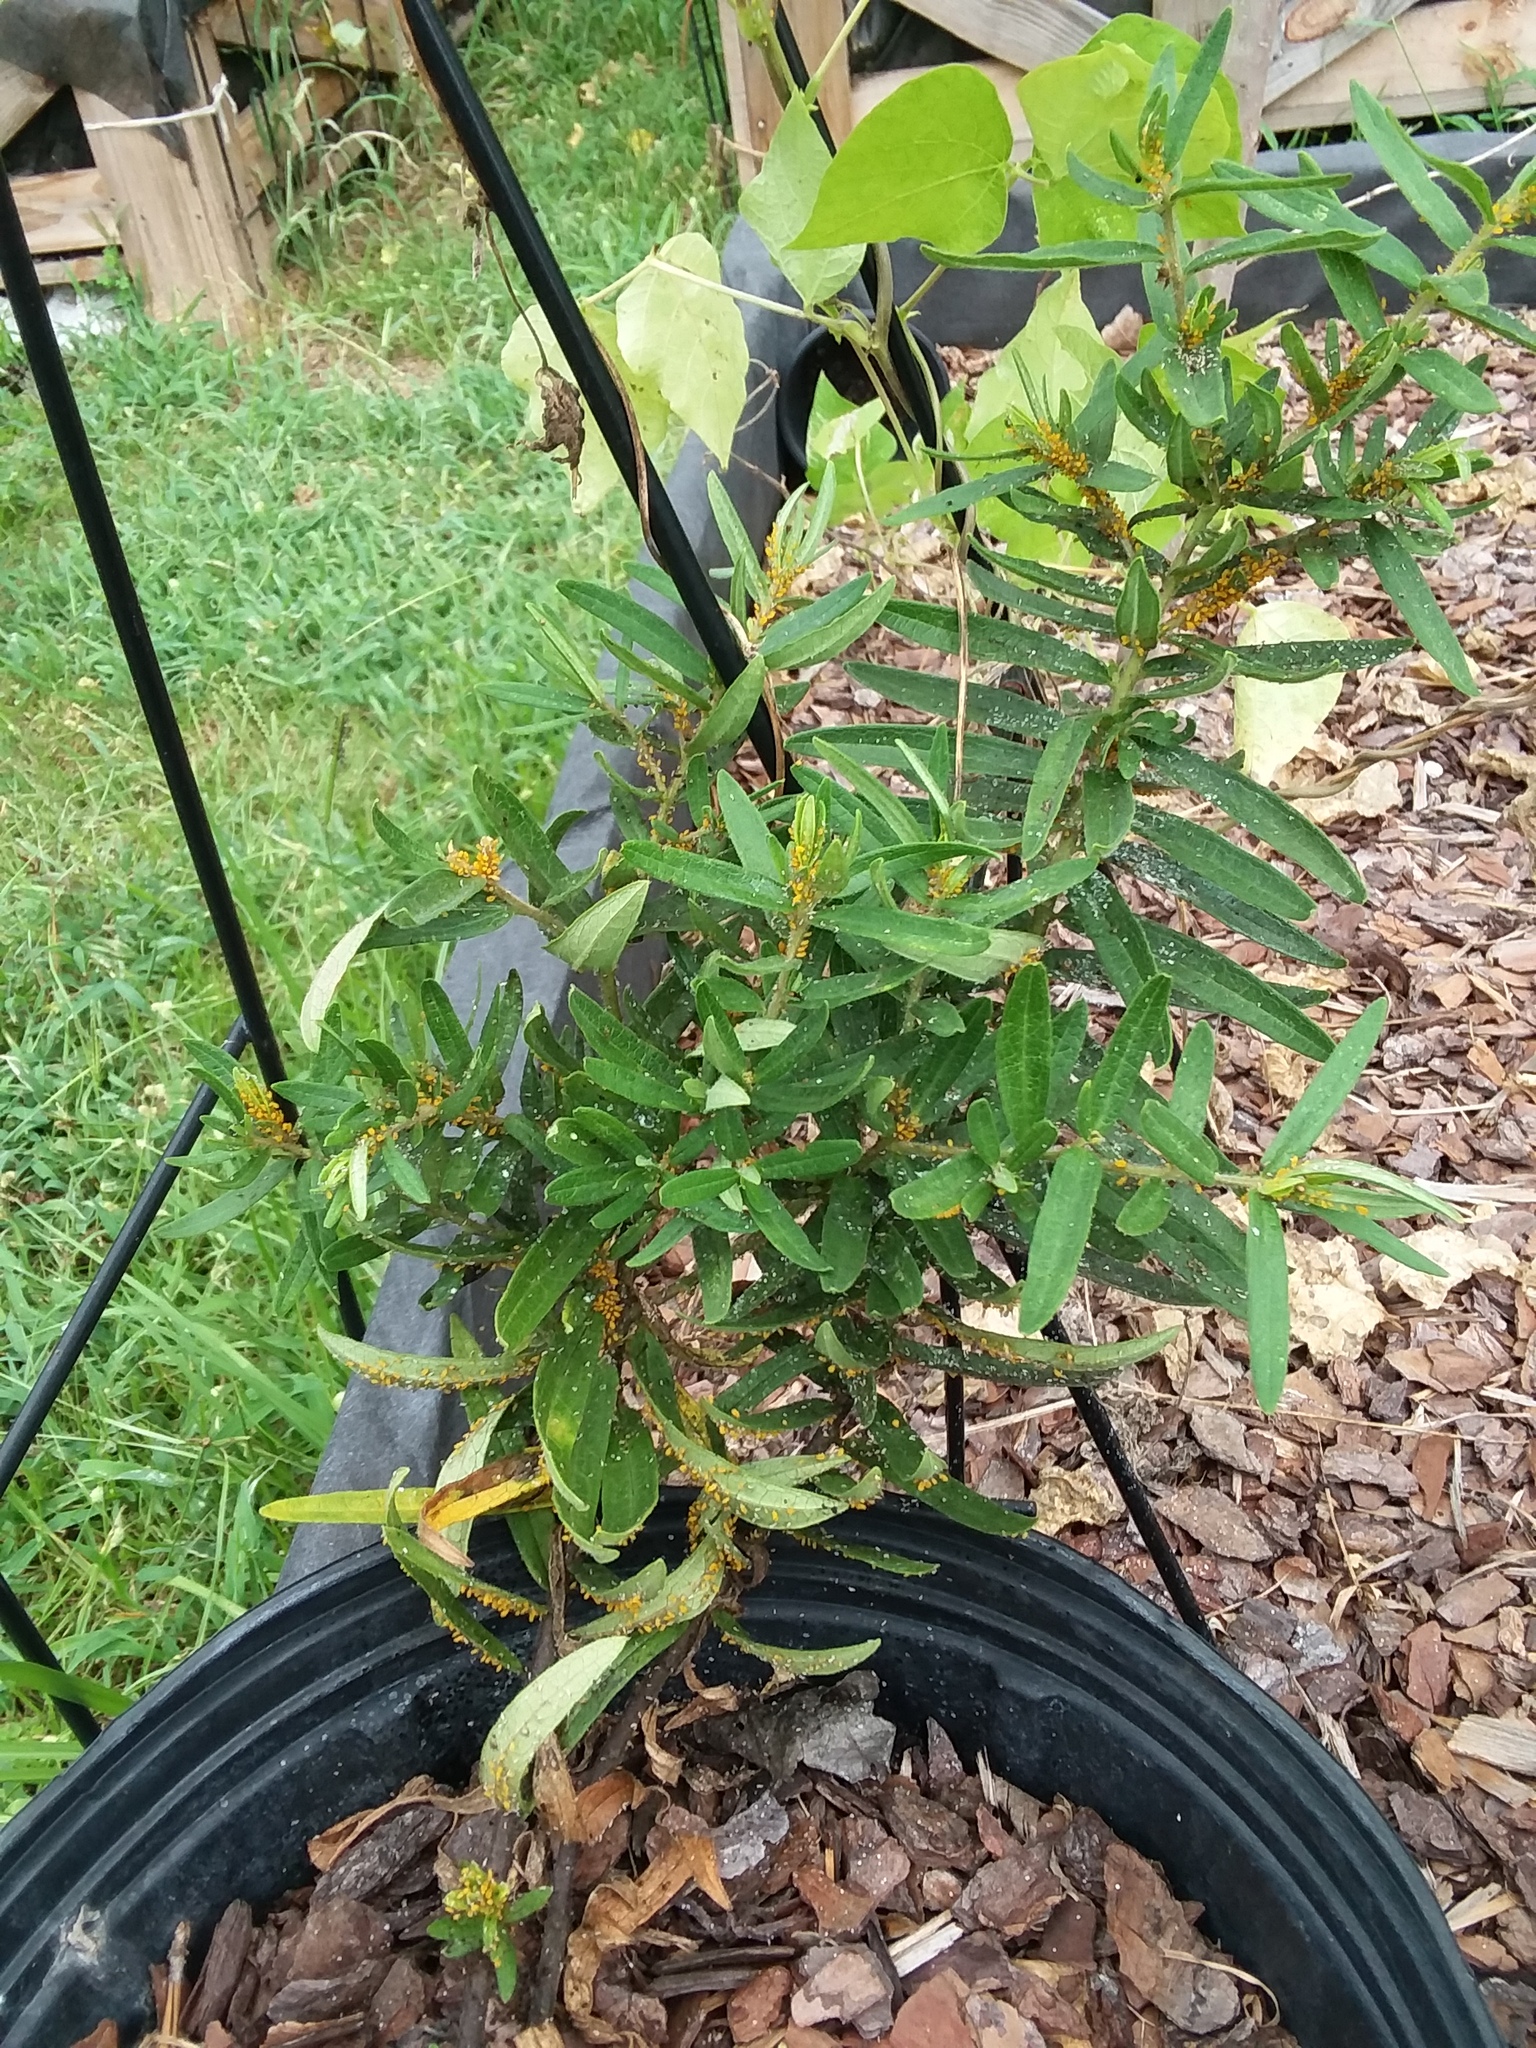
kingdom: Animalia
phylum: Arthropoda
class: Insecta
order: Hemiptera
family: Aphididae
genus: Aphis
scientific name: Aphis nerii
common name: Oleander aphid
